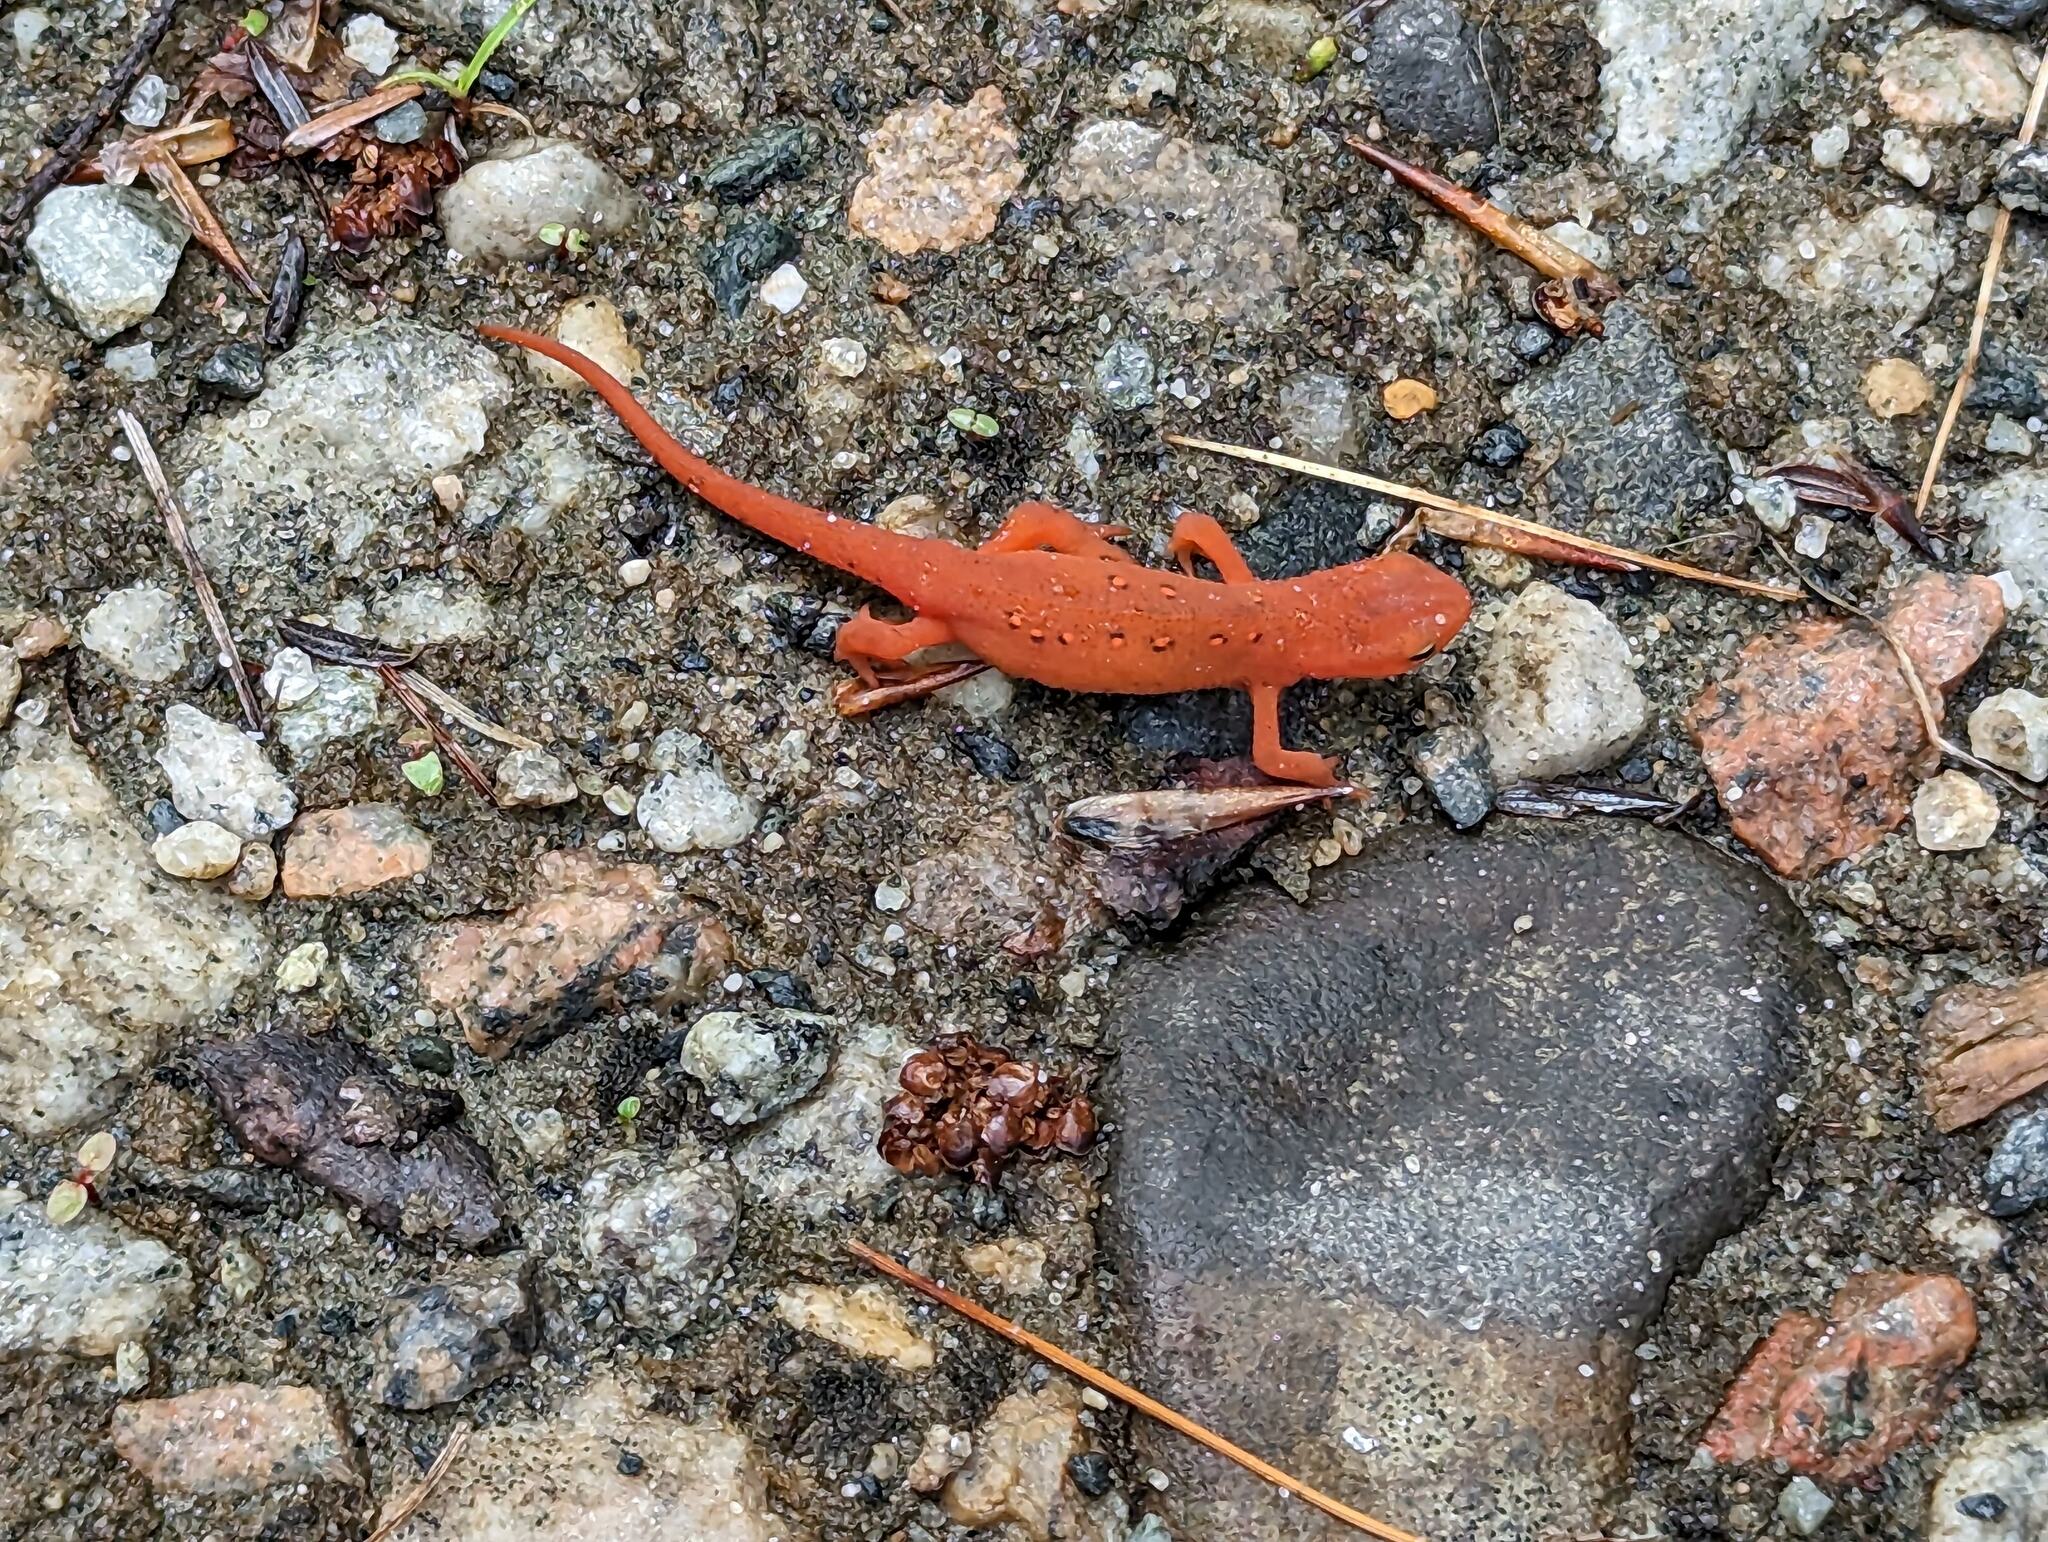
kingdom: Animalia
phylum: Chordata
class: Amphibia
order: Caudata
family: Salamandridae
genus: Notophthalmus
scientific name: Notophthalmus viridescens
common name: Eastern newt
